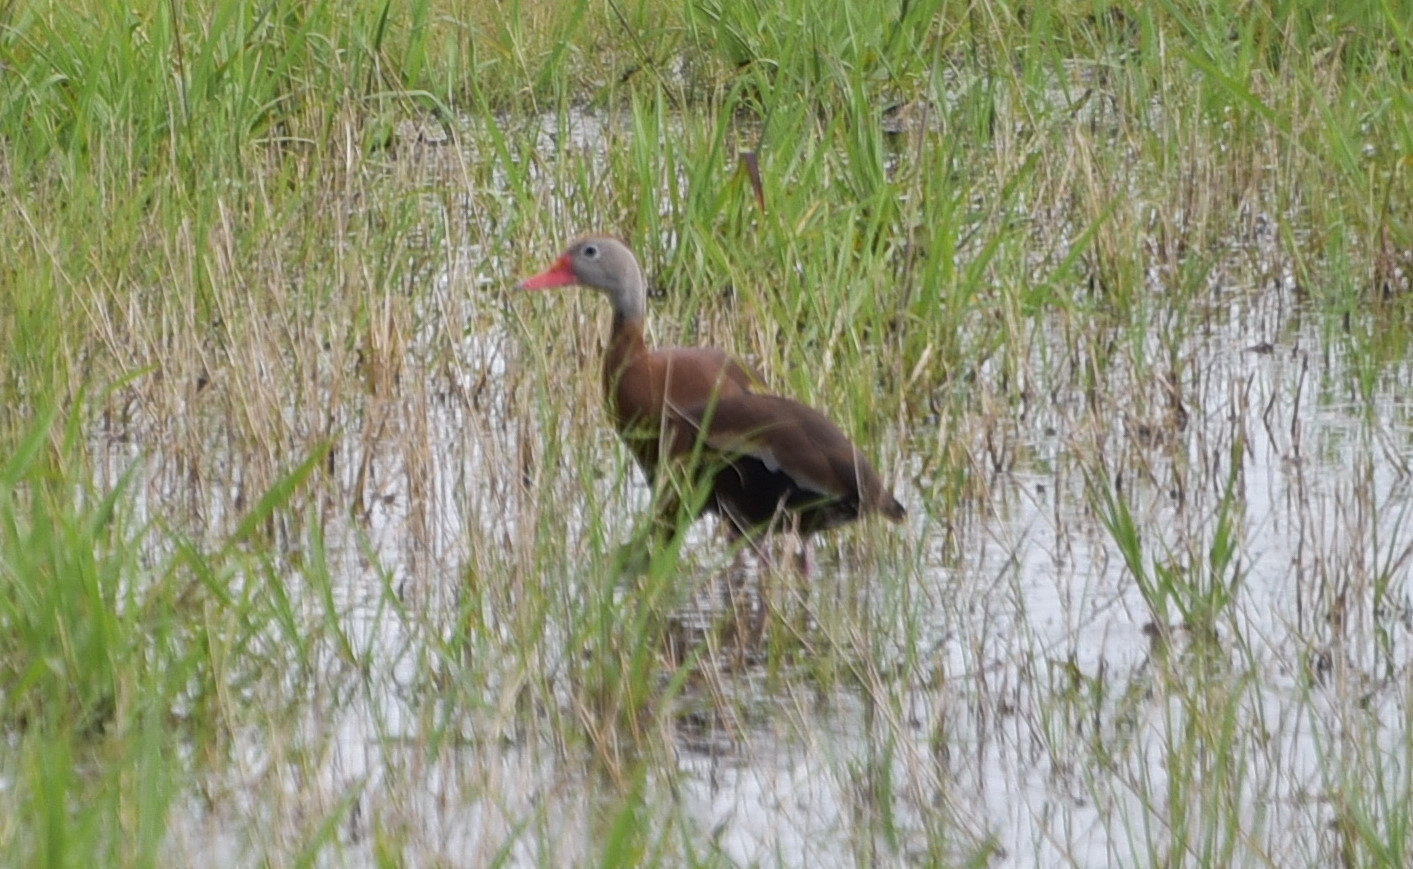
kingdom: Animalia
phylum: Chordata
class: Aves
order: Anseriformes
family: Anatidae
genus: Dendrocygna
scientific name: Dendrocygna autumnalis
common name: Black-bellied whistling duck
